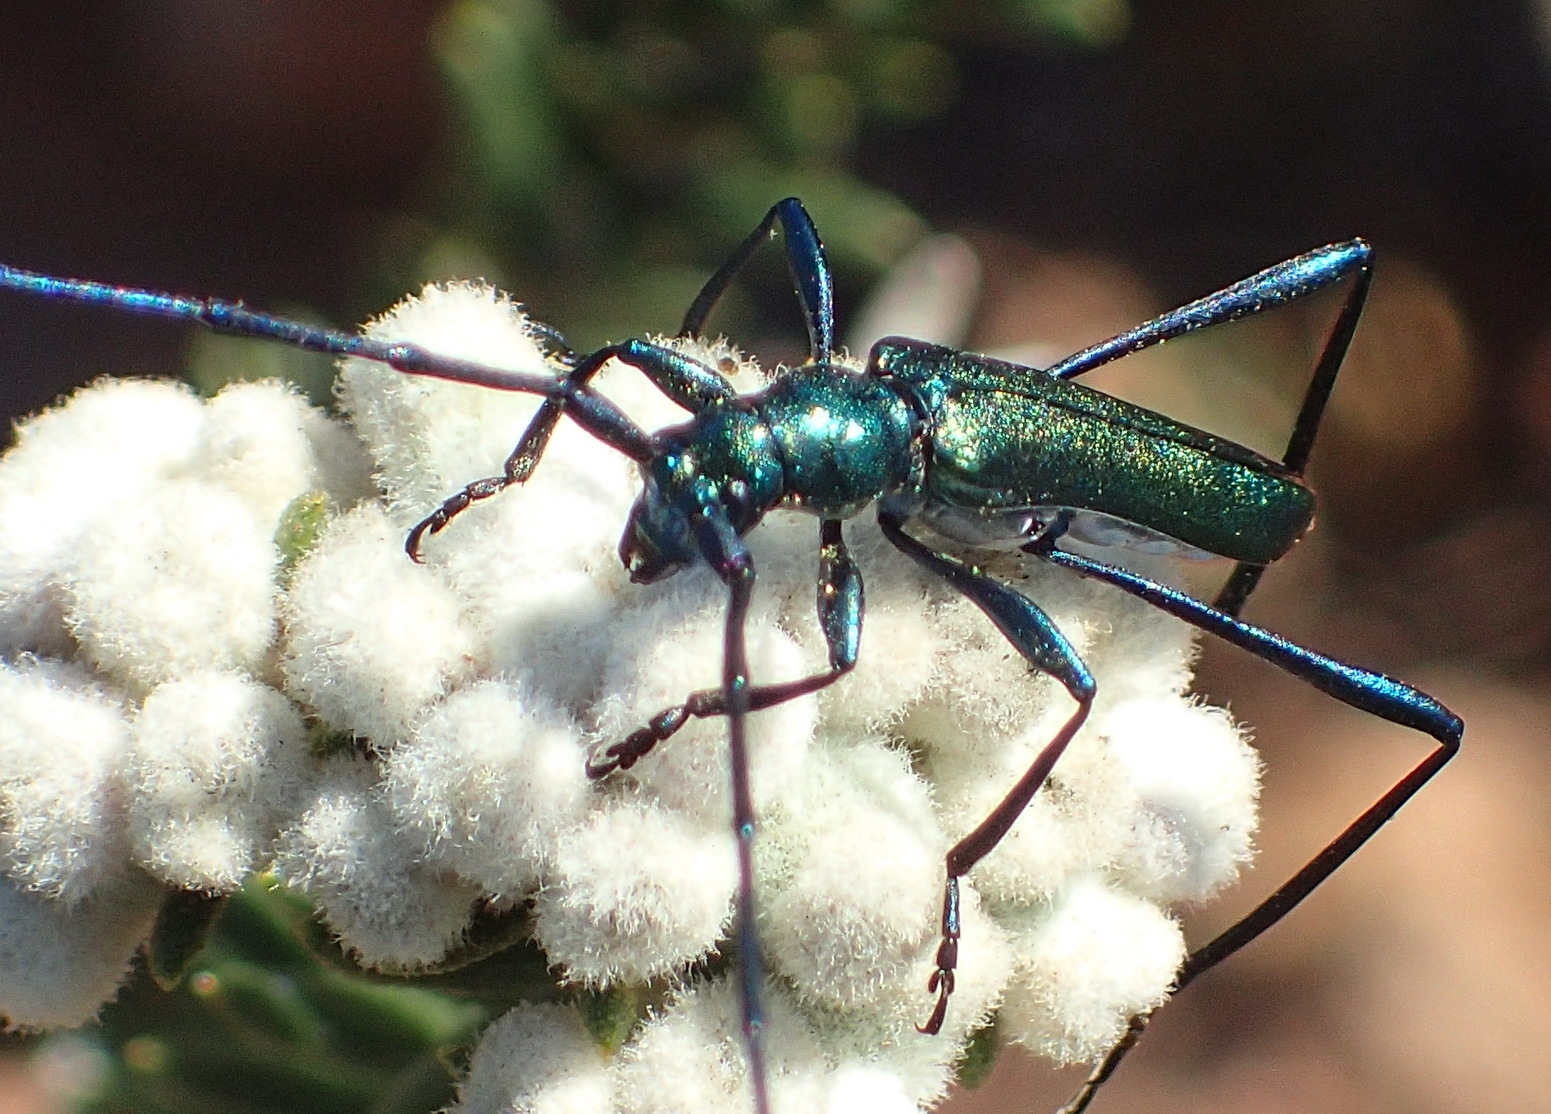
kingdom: Animalia
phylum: Arthropoda
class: Insecta
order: Coleoptera
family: Cerambycidae
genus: Promeces
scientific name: Promeces longipes
